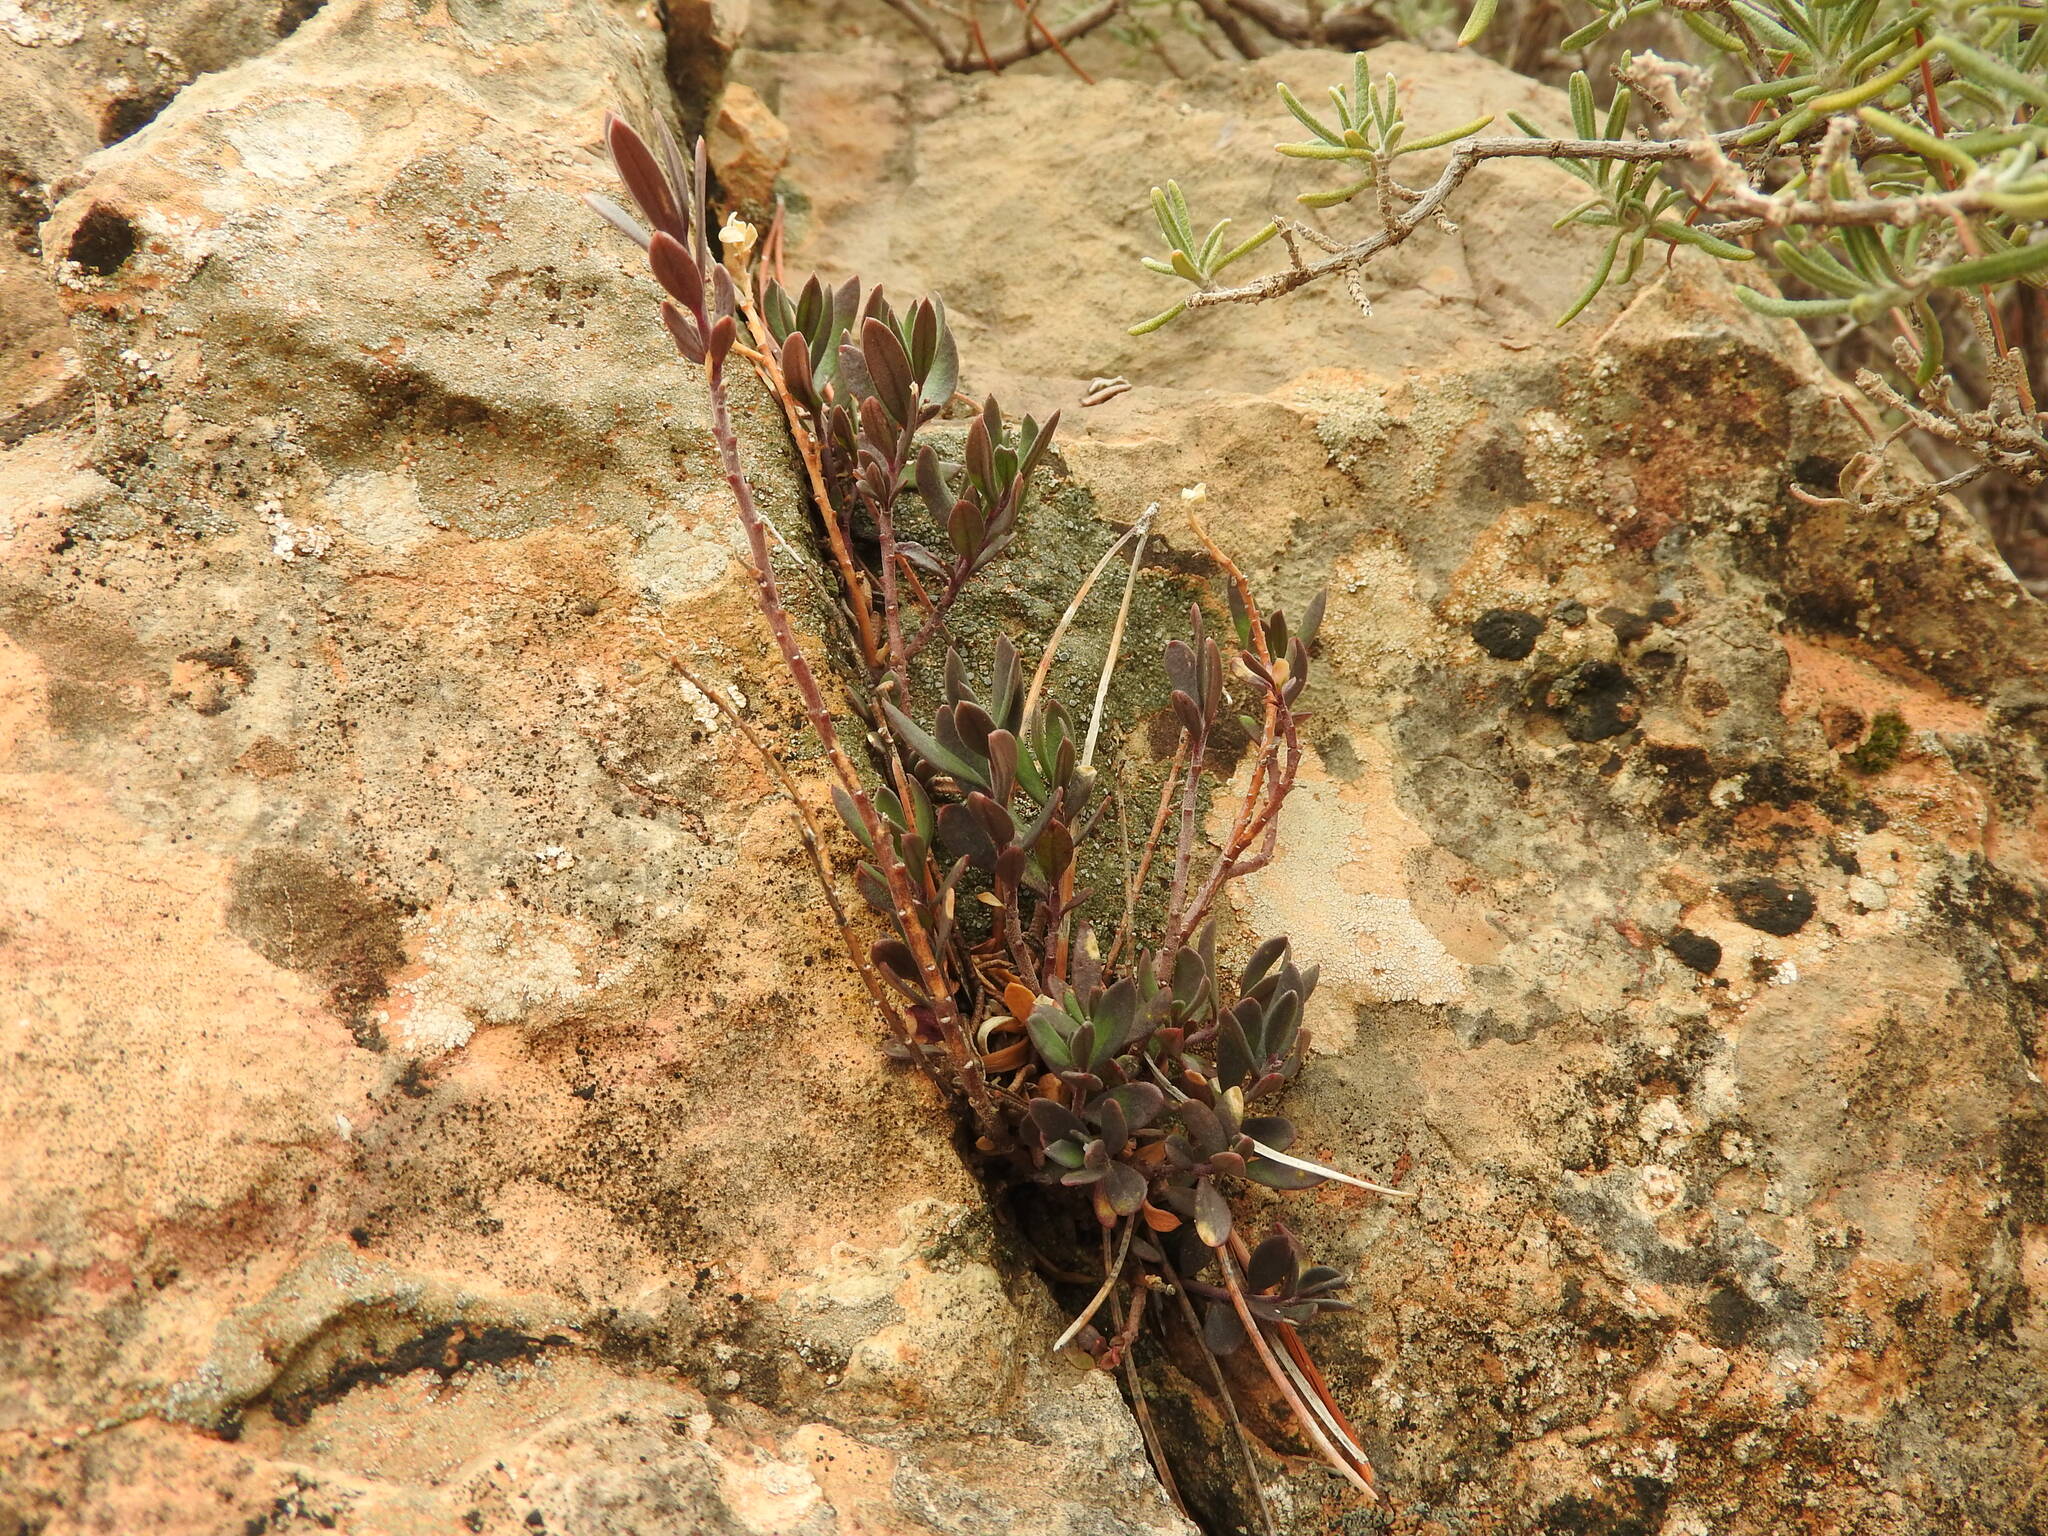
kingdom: Plantae
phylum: Tracheophyta
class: Magnoliopsida
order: Fabales
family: Polygalaceae
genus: Polygala
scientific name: Polygala rupestris
